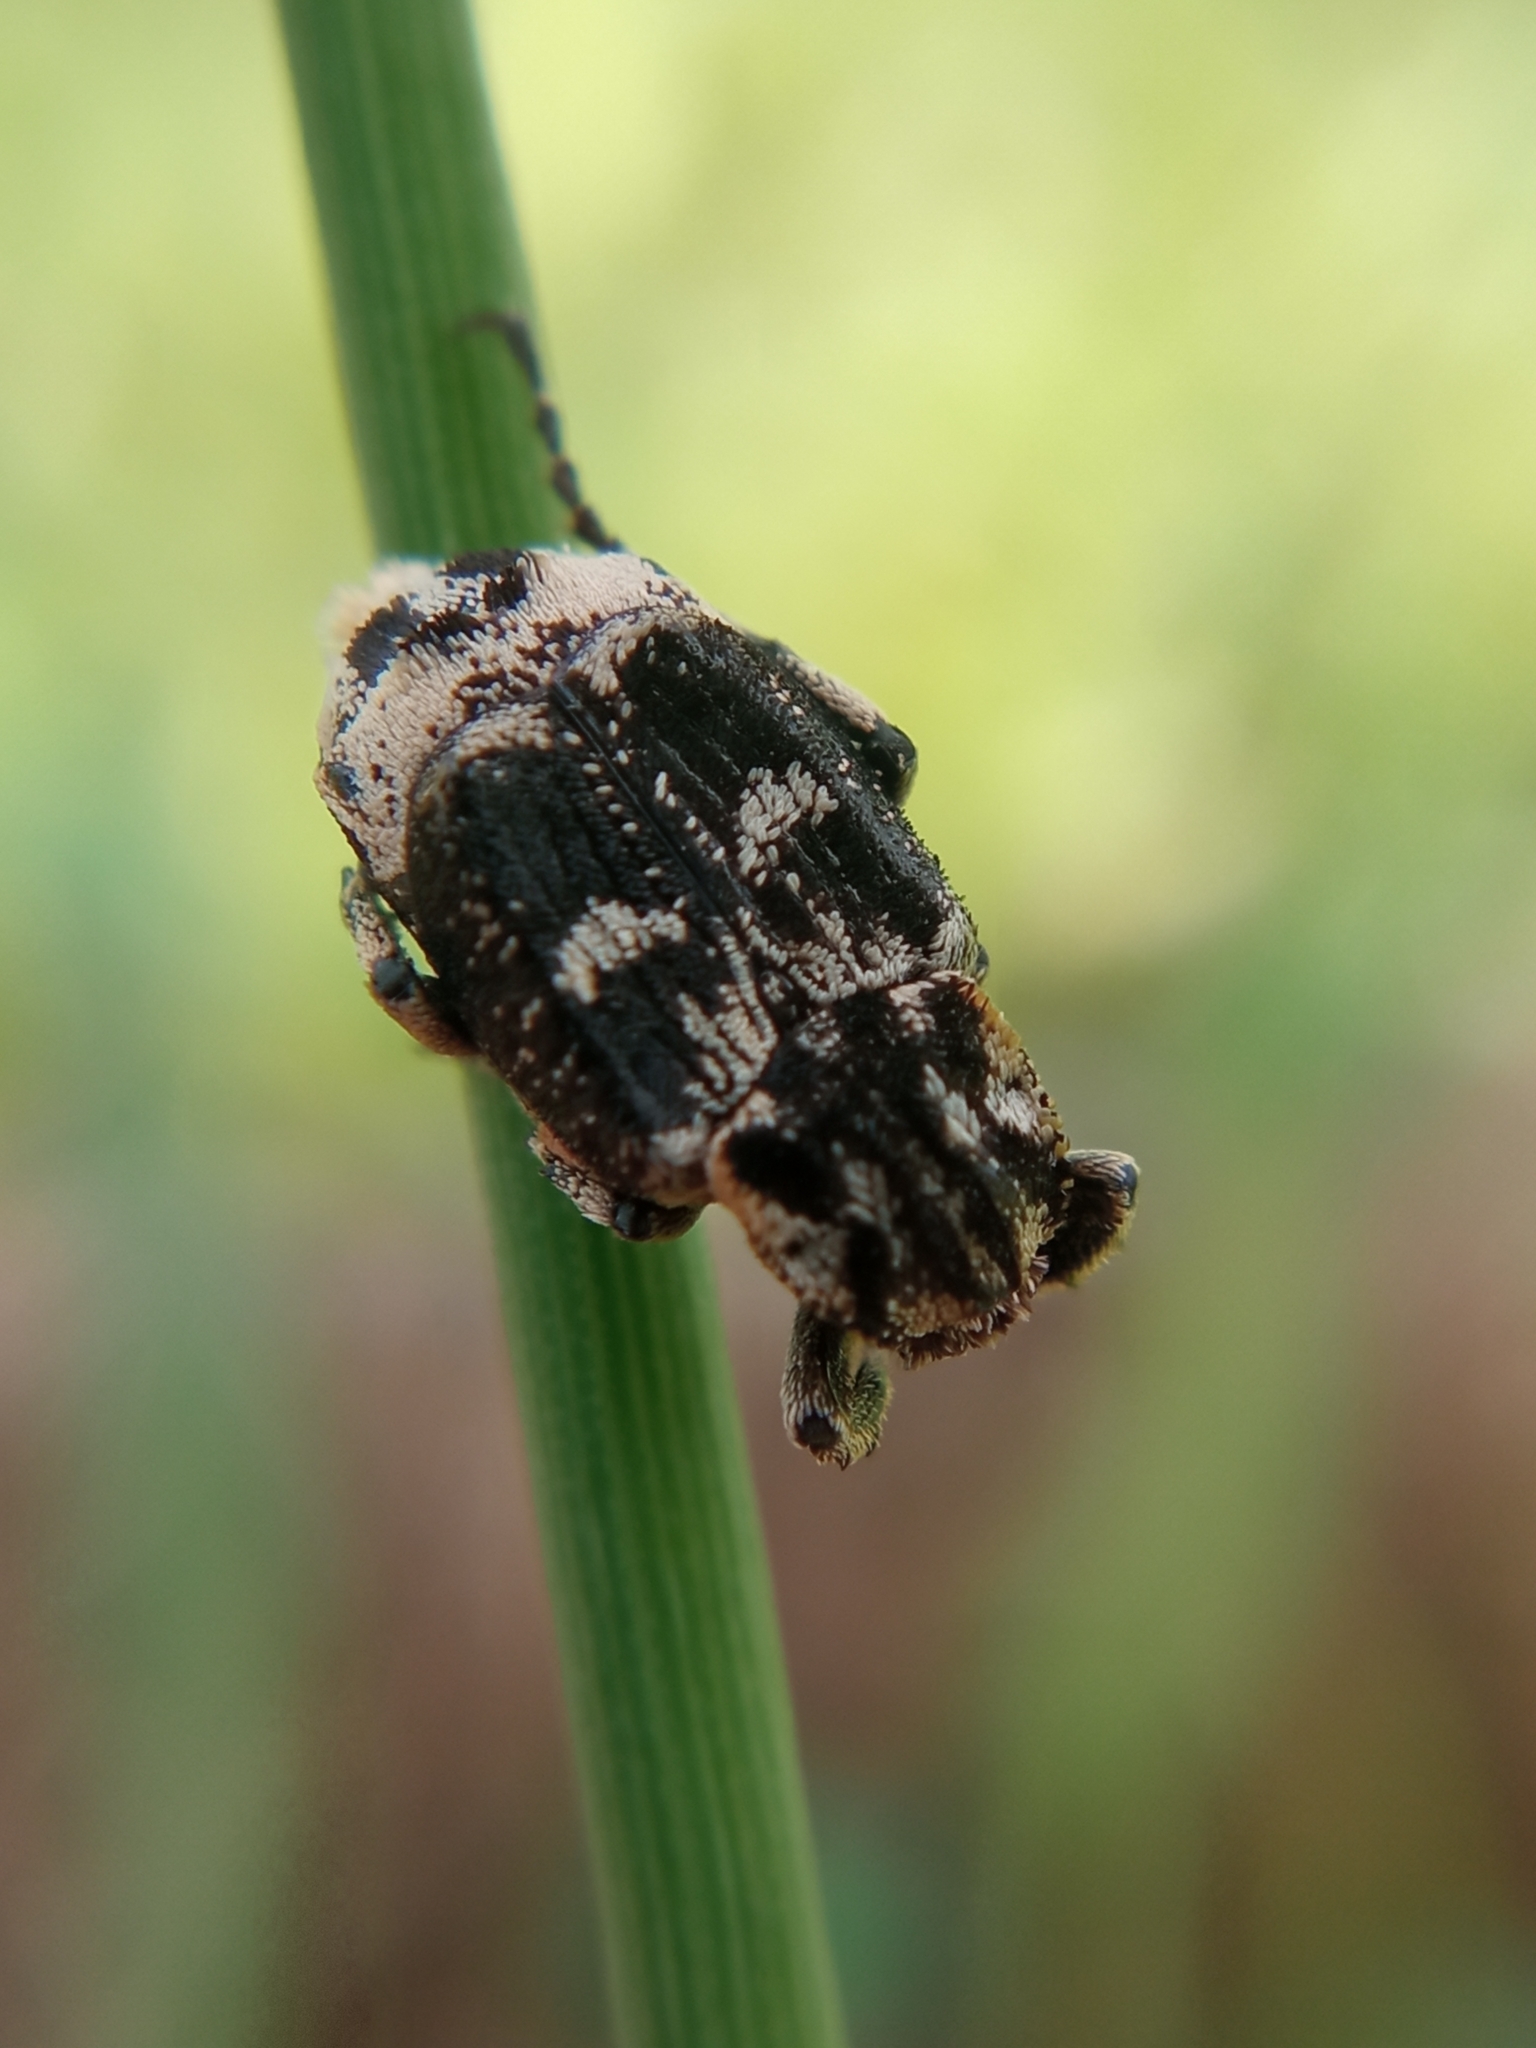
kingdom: Animalia
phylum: Arthropoda
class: Insecta
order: Coleoptera
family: Scarabaeidae
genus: Valgus
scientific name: Valgus hemipterus
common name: Bug flower chafer
